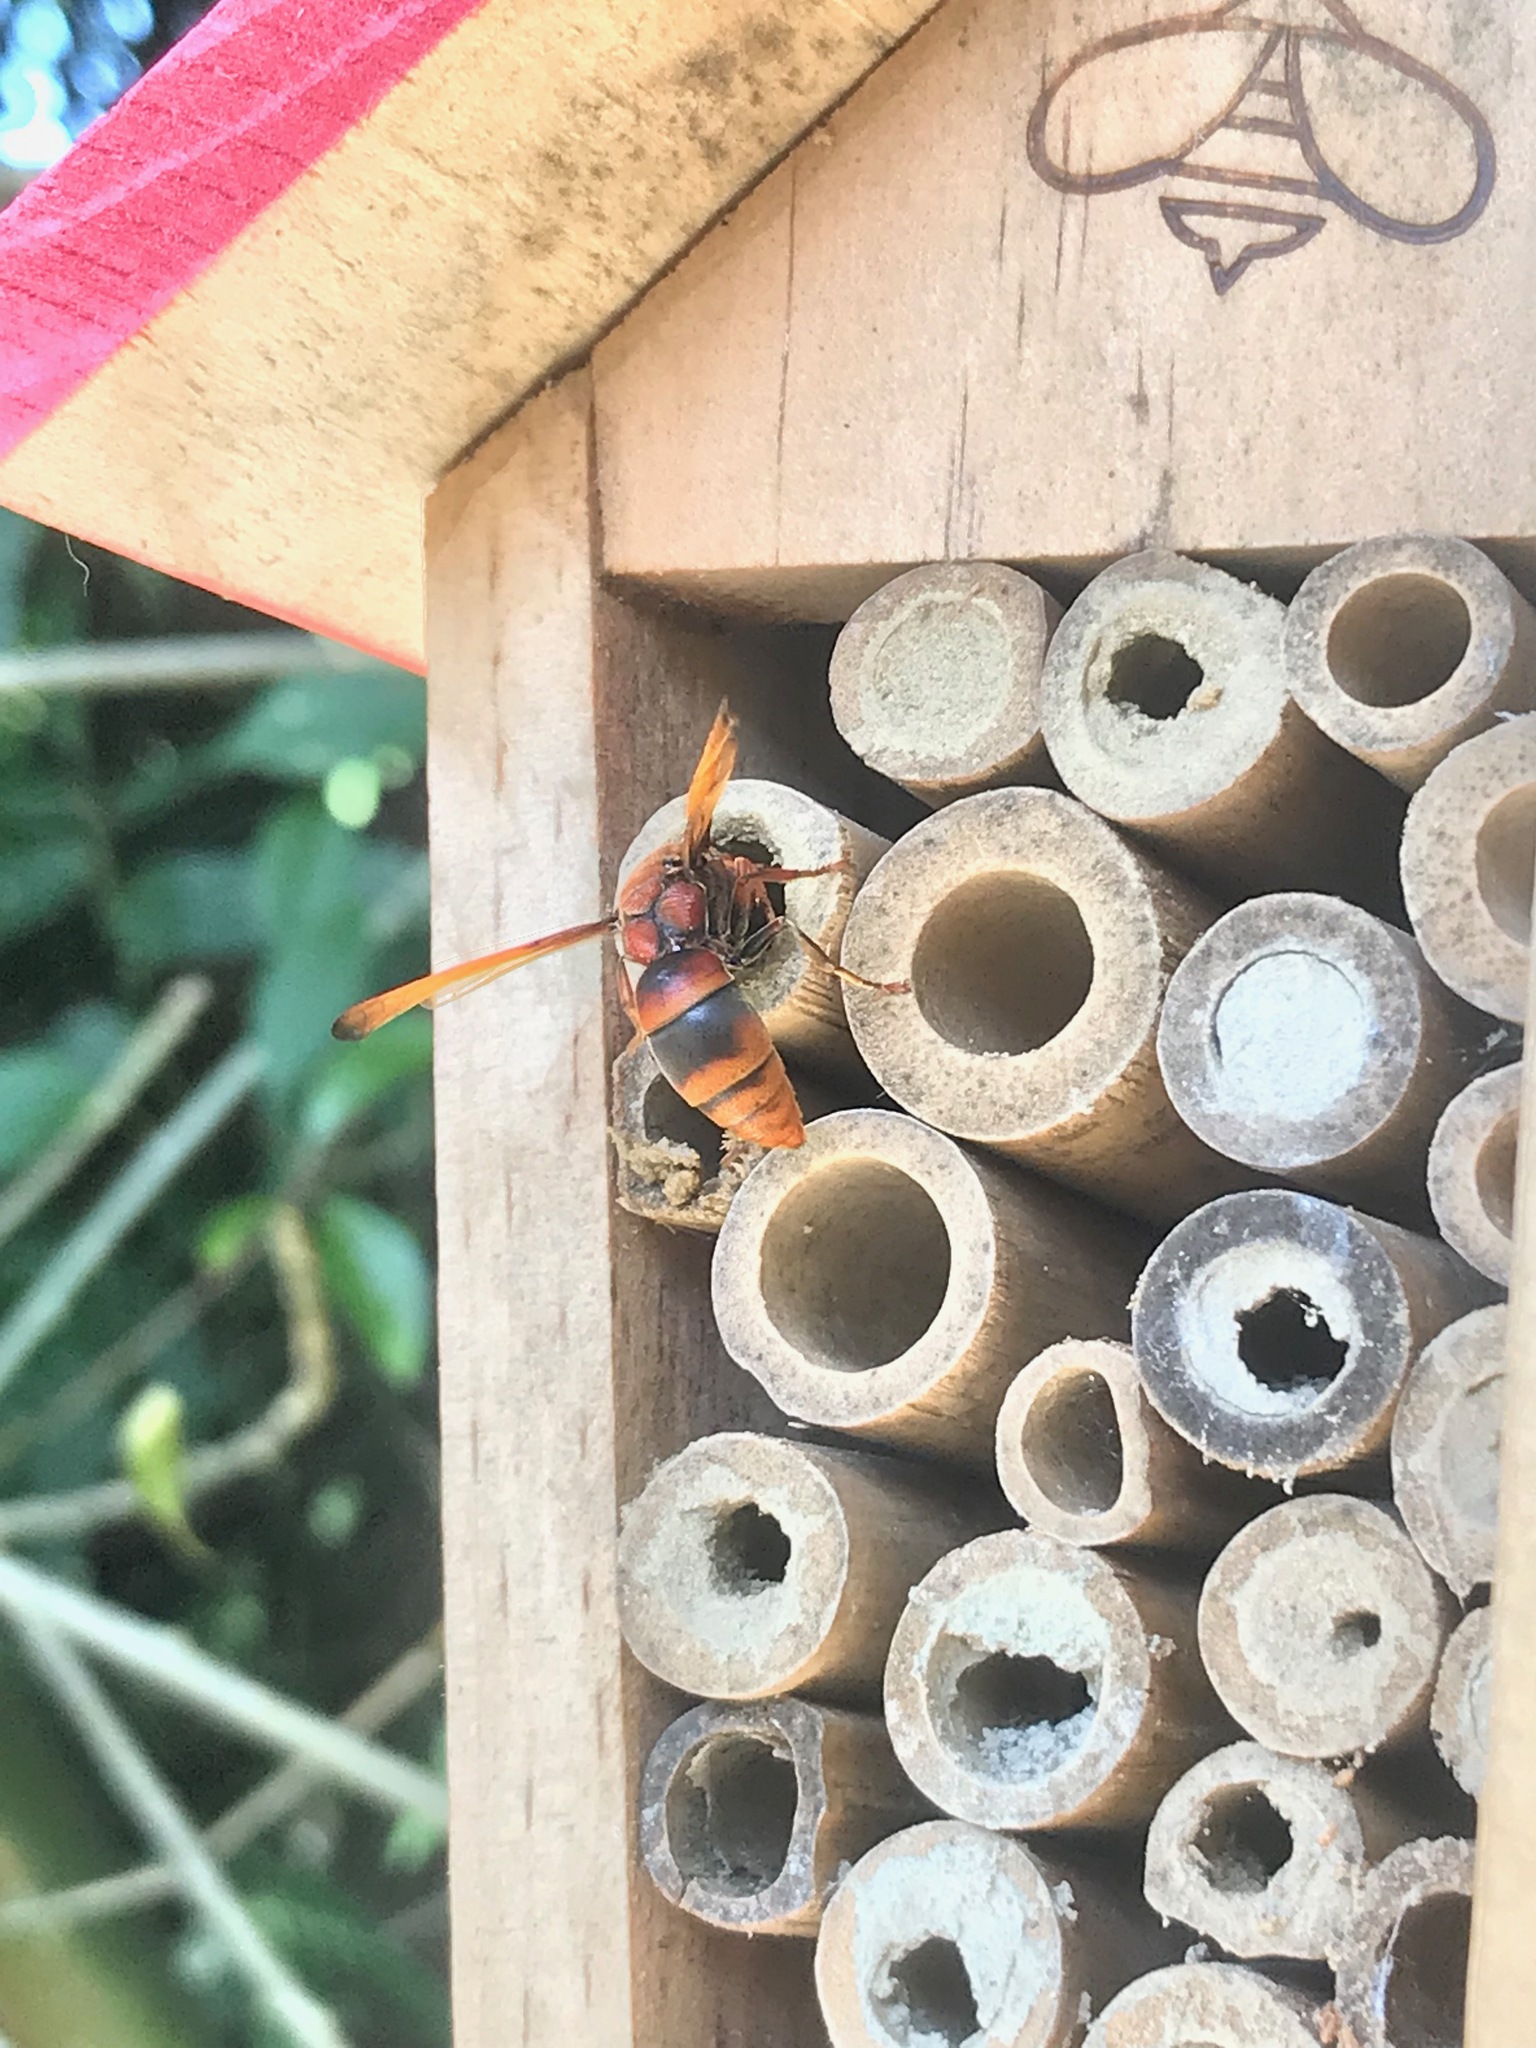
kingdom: Animalia
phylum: Arthropoda
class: Insecta
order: Hymenoptera
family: Eumenidae
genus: Rhynchium
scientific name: Rhynchium brunneum
